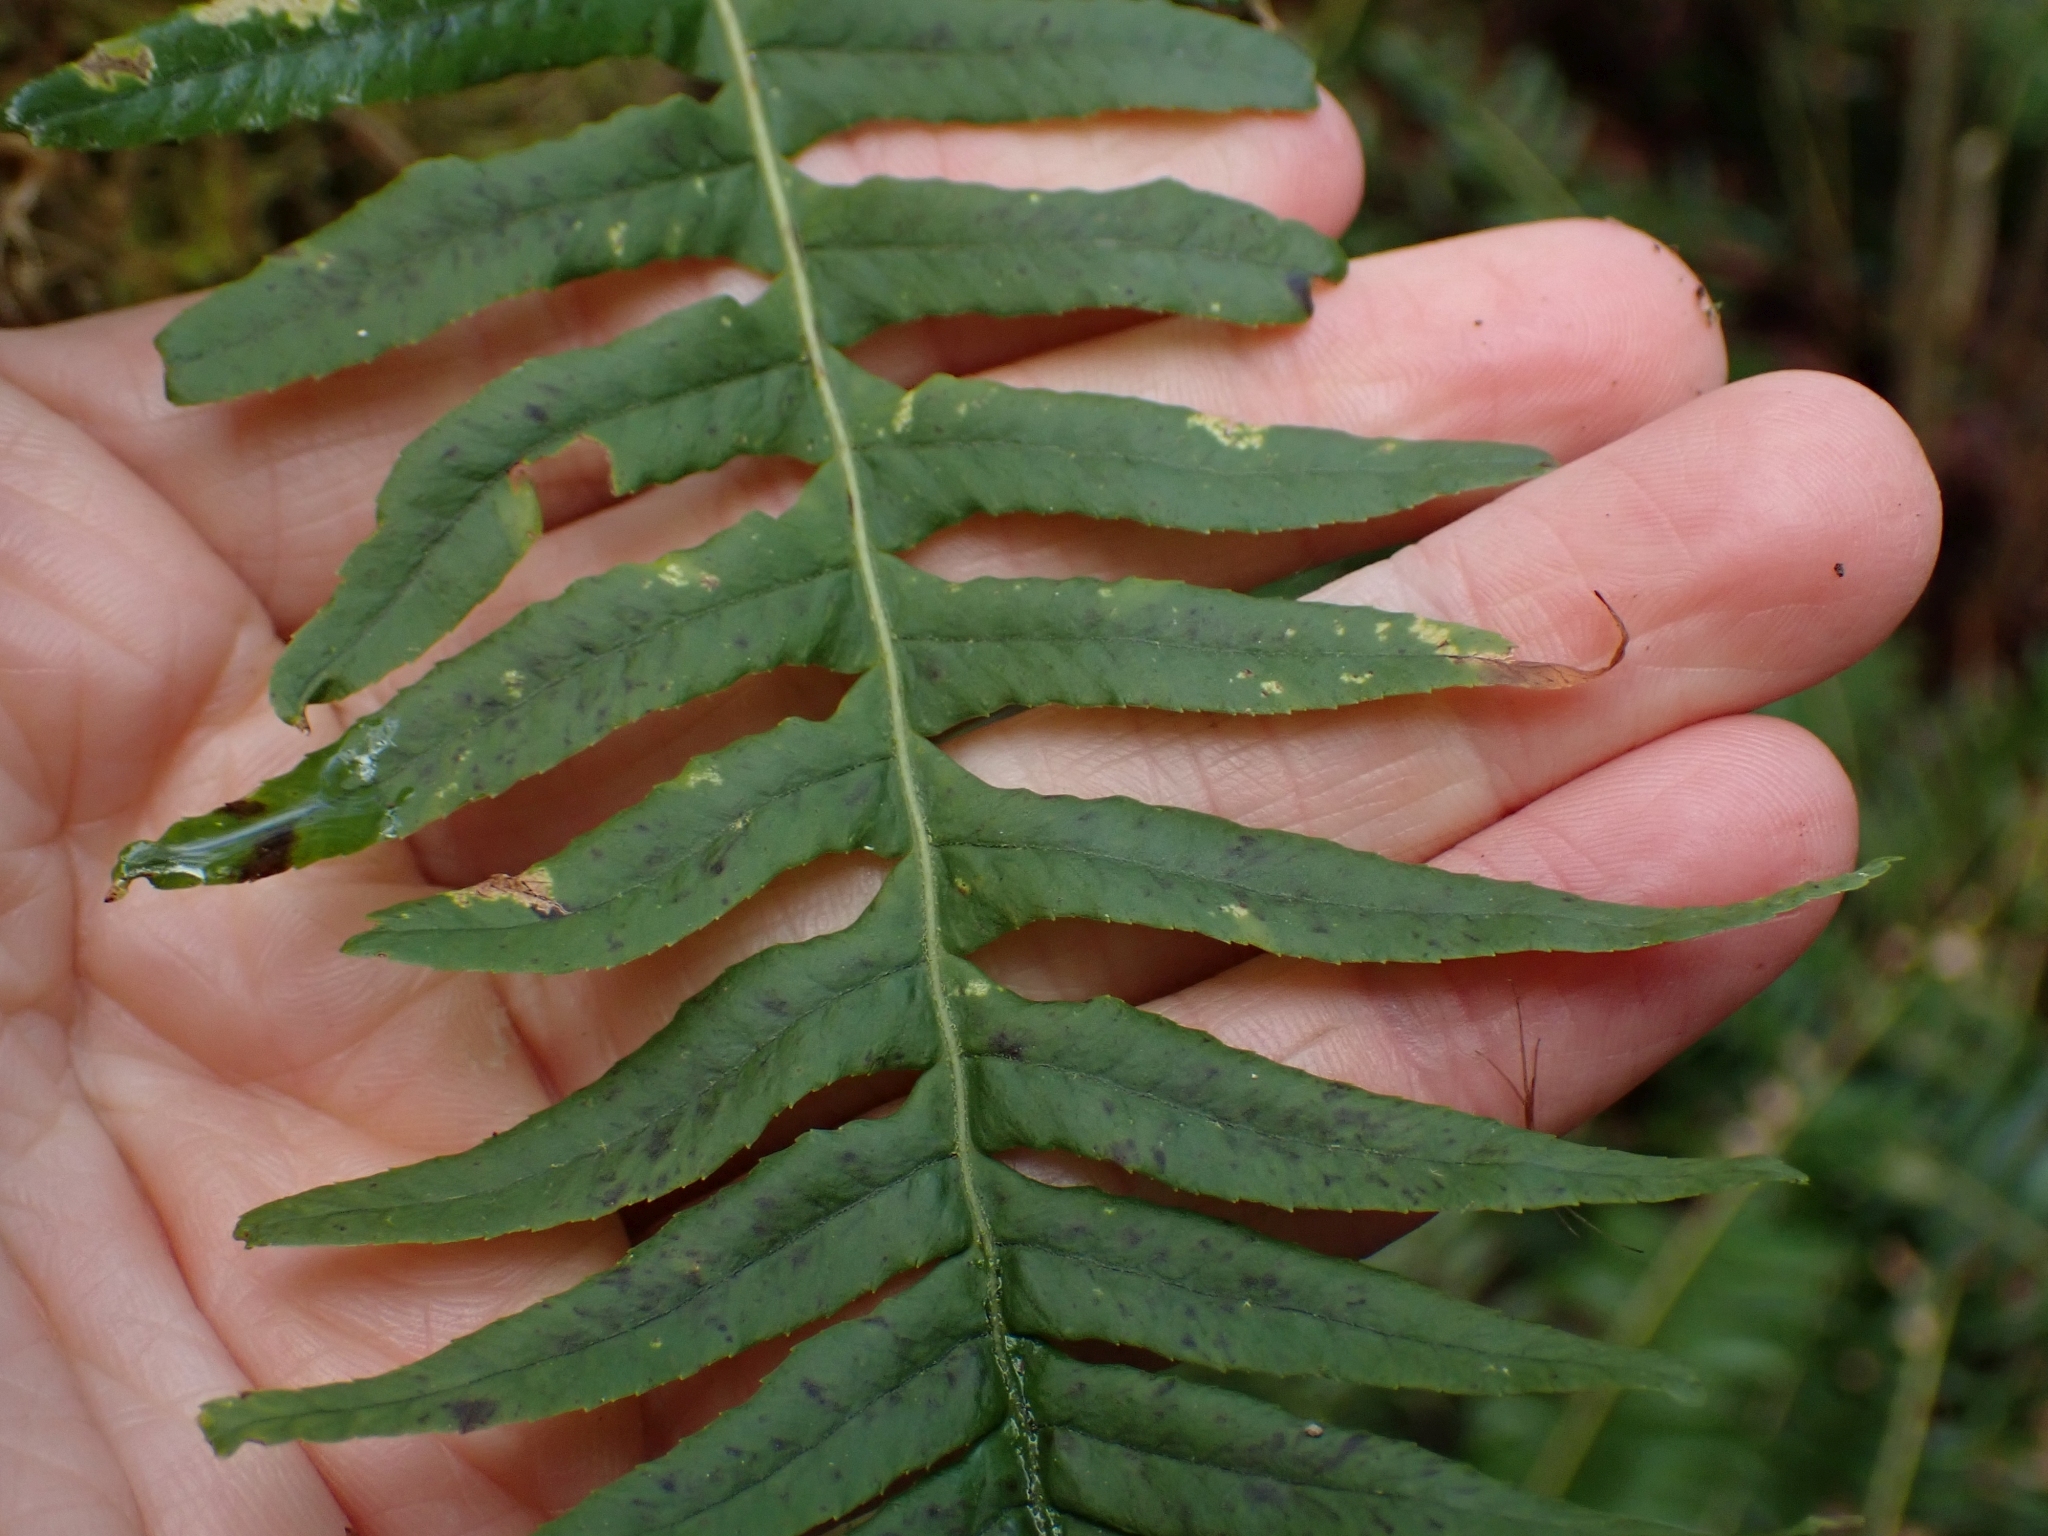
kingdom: Plantae
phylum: Tracheophyta
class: Polypodiopsida
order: Polypodiales
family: Polypodiaceae
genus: Polypodium
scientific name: Polypodium glycyrrhiza
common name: Licorice fern
